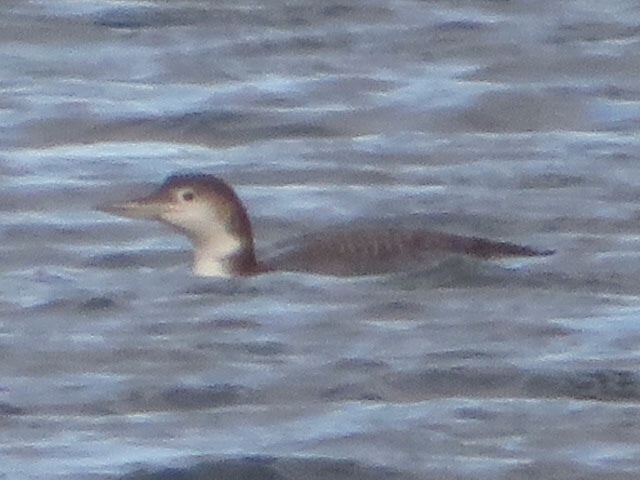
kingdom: Animalia
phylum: Chordata
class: Aves
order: Gaviiformes
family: Gaviidae
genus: Gavia
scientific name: Gavia immer
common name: Common loon
